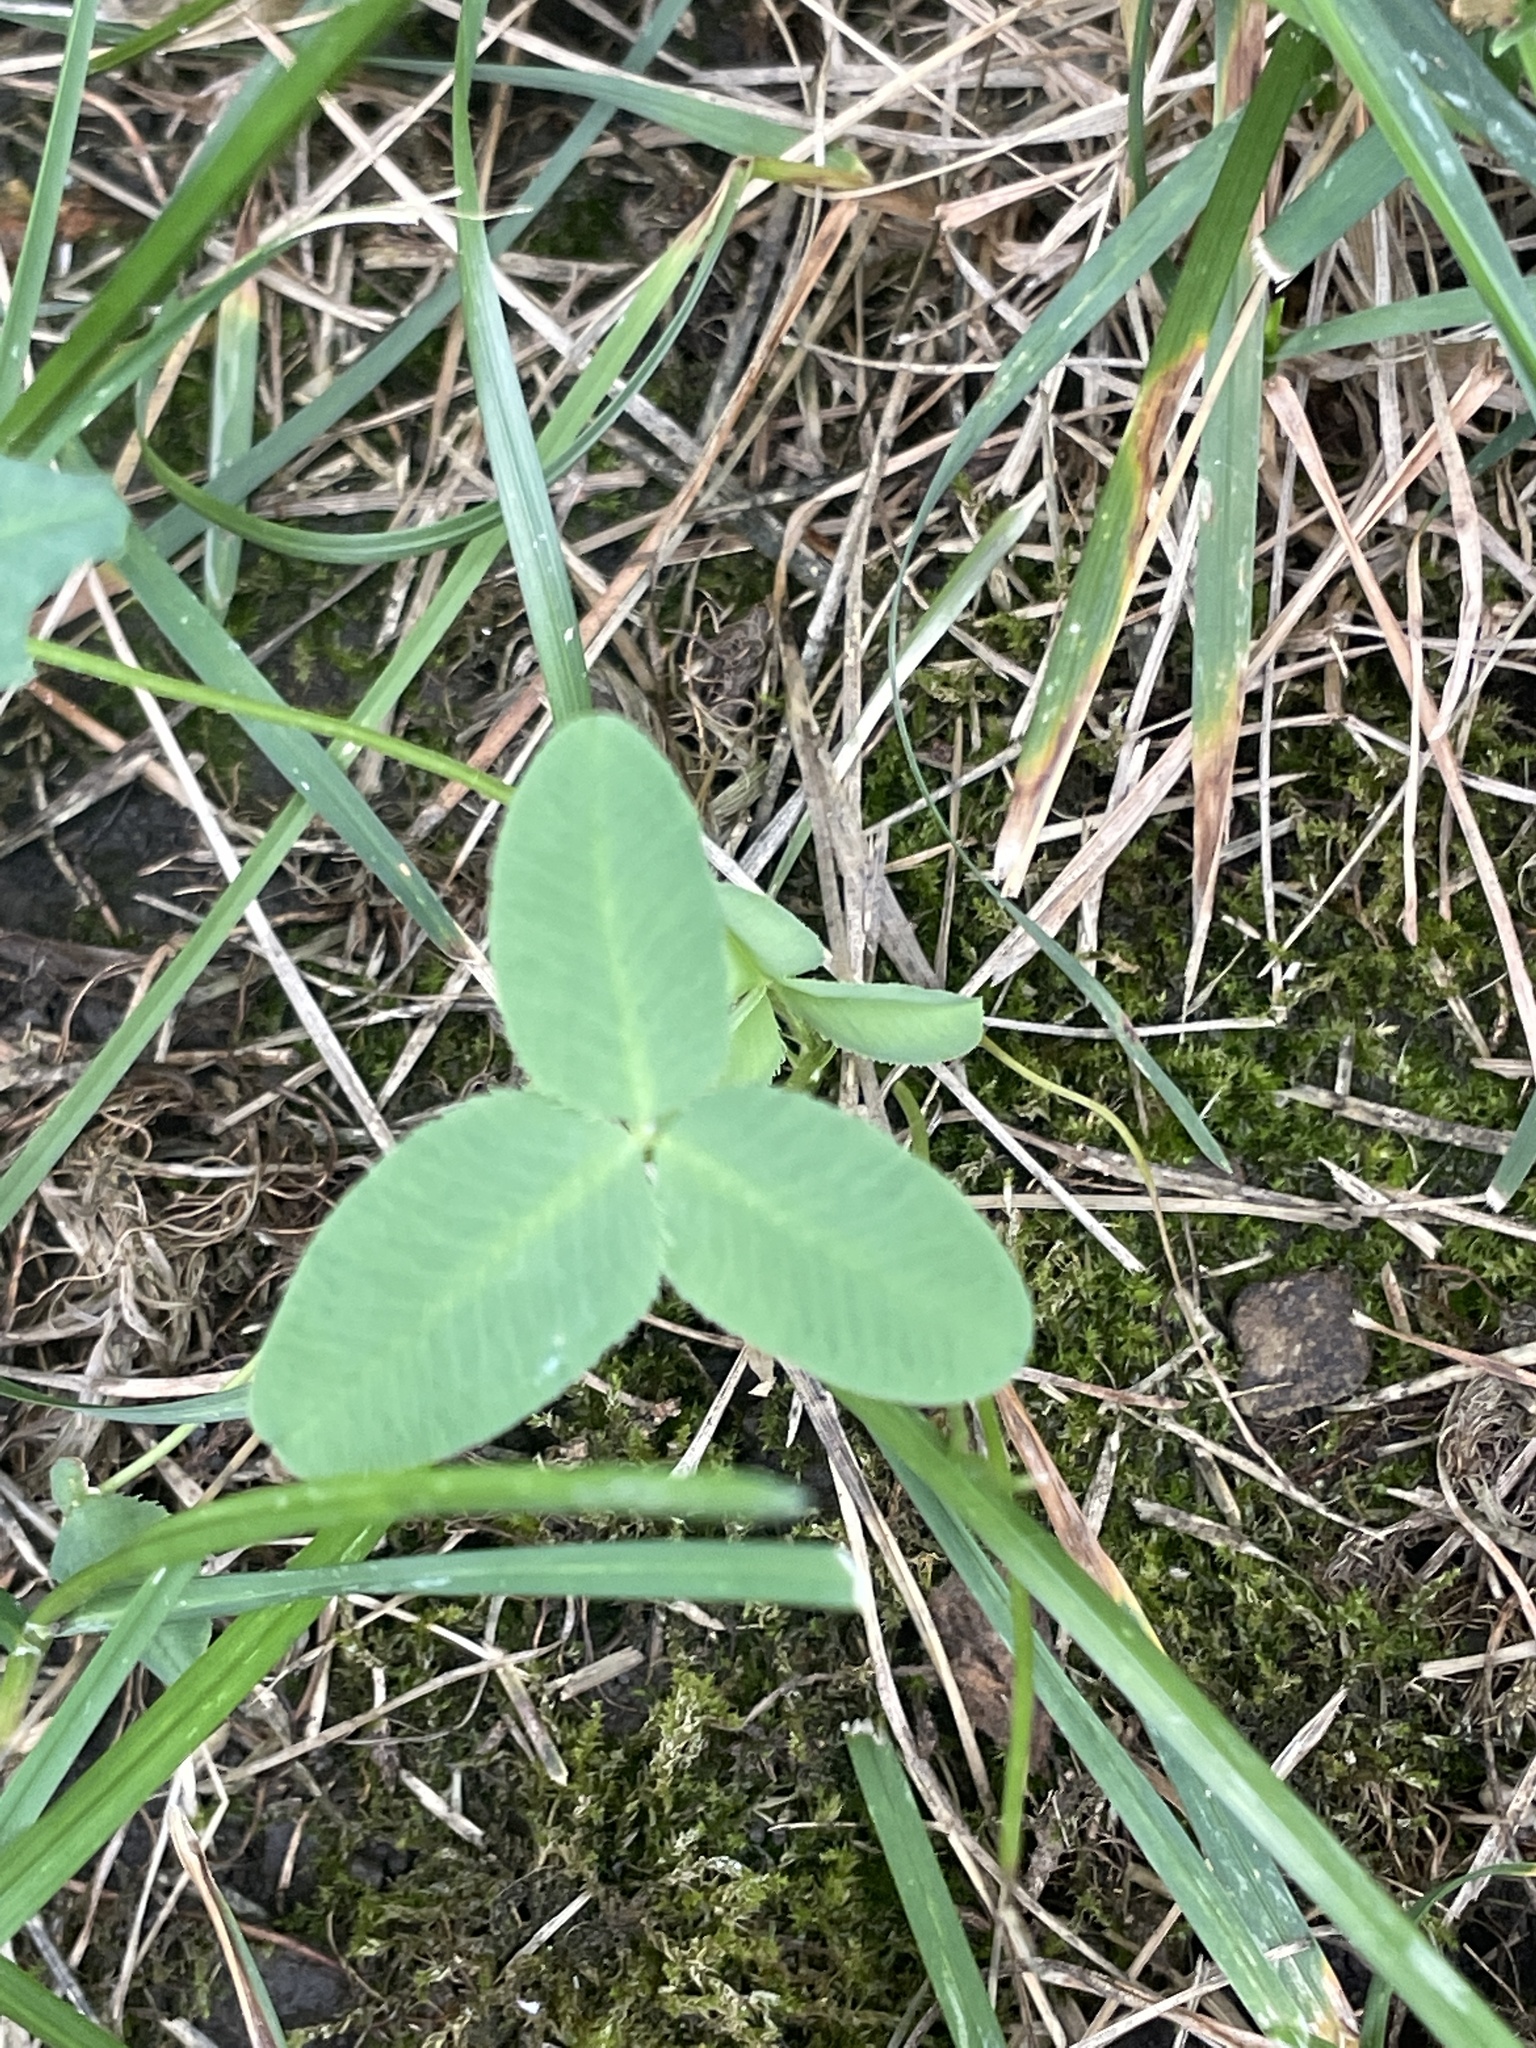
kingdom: Plantae
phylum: Tracheophyta
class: Magnoliopsida
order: Fabales
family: Fabaceae
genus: Trifolium
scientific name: Trifolium hybridum
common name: Alsike clover
